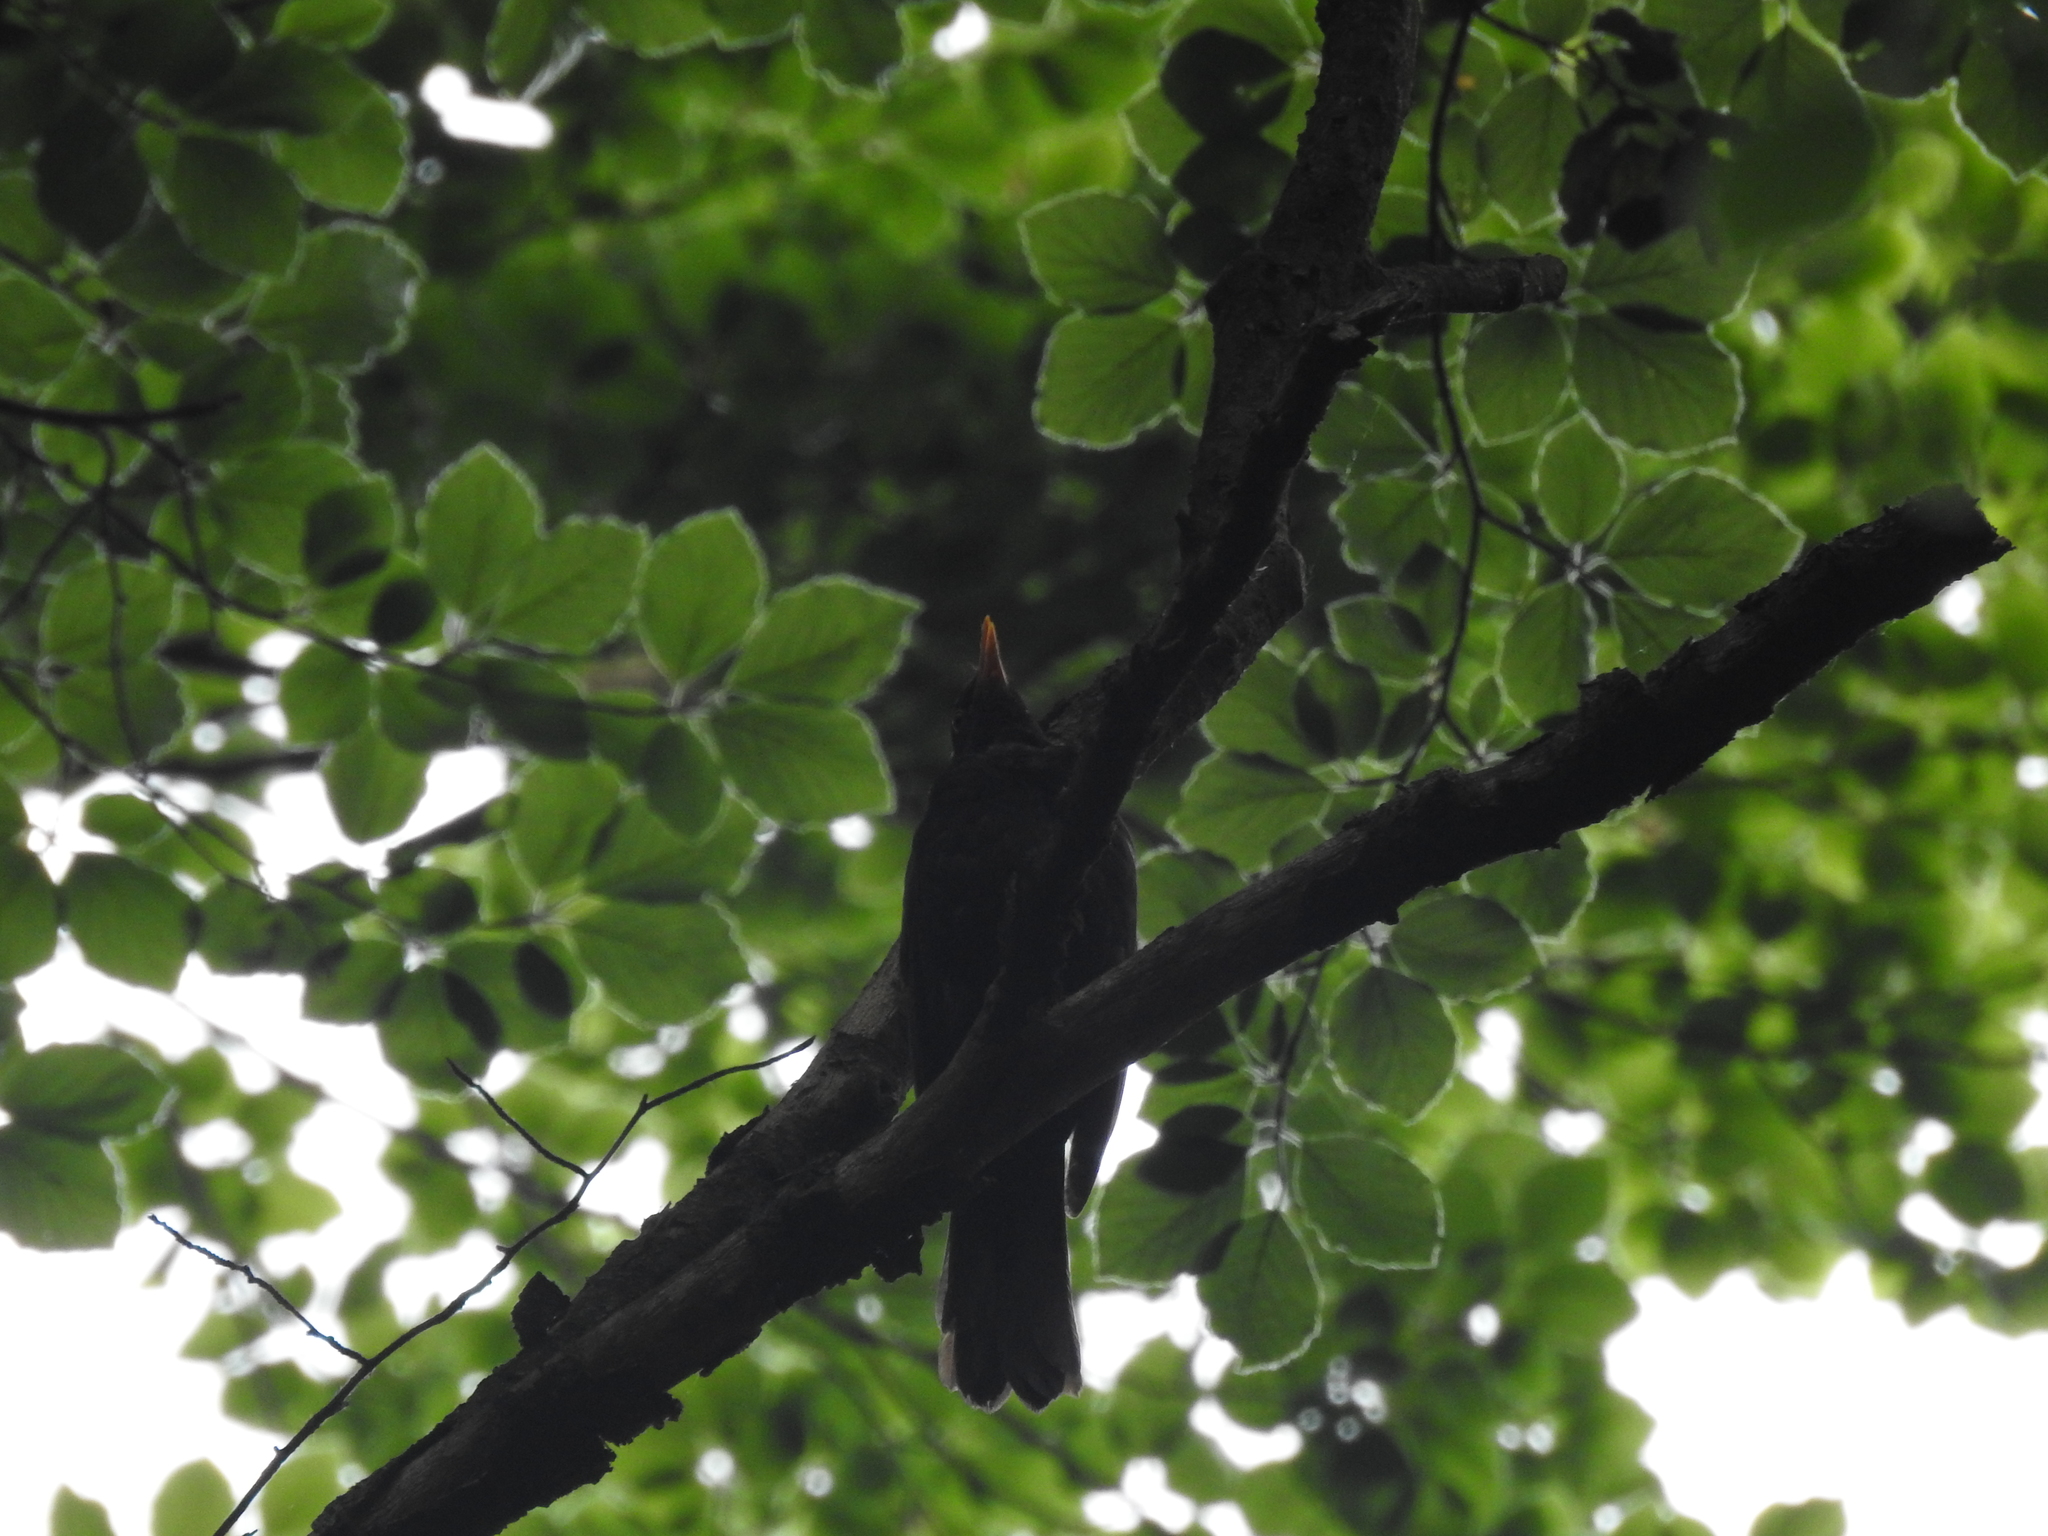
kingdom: Animalia
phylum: Chordata
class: Aves
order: Passeriformes
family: Turdidae
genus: Turdus
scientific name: Turdus merula
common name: Common blackbird
